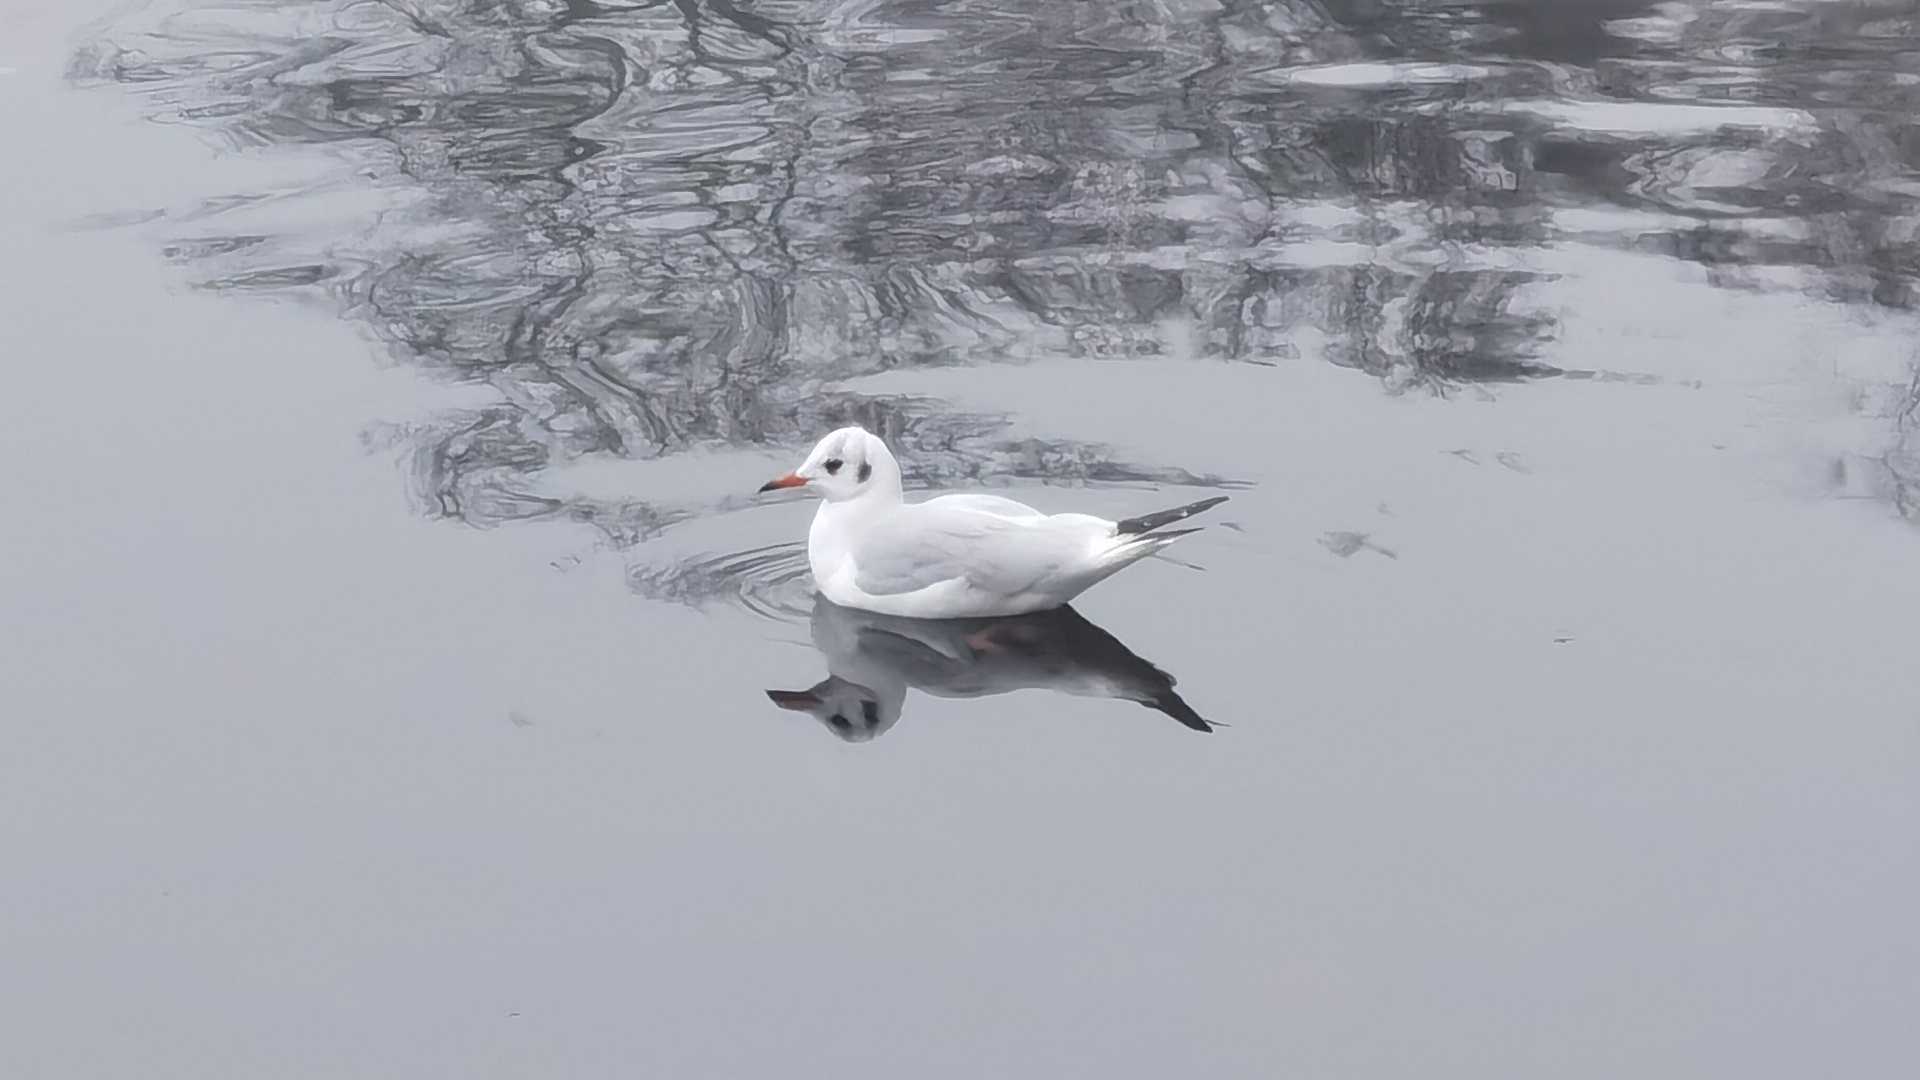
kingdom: Animalia
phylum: Chordata
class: Aves
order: Charadriiformes
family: Laridae
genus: Chroicocephalus
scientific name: Chroicocephalus ridibundus
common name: Black-headed gull
